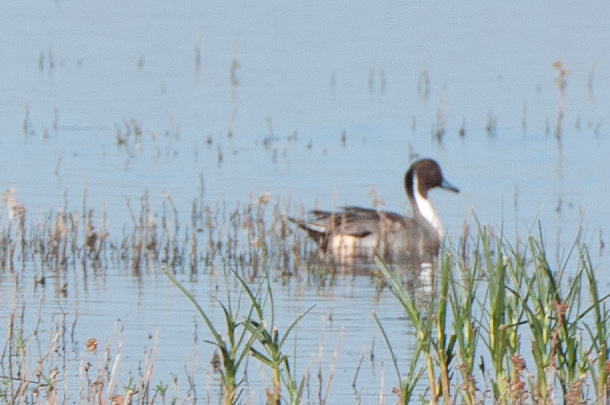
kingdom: Animalia
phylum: Chordata
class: Aves
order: Anseriformes
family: Anatidae
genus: Anas
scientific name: Anas acuta
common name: Northern pintail
